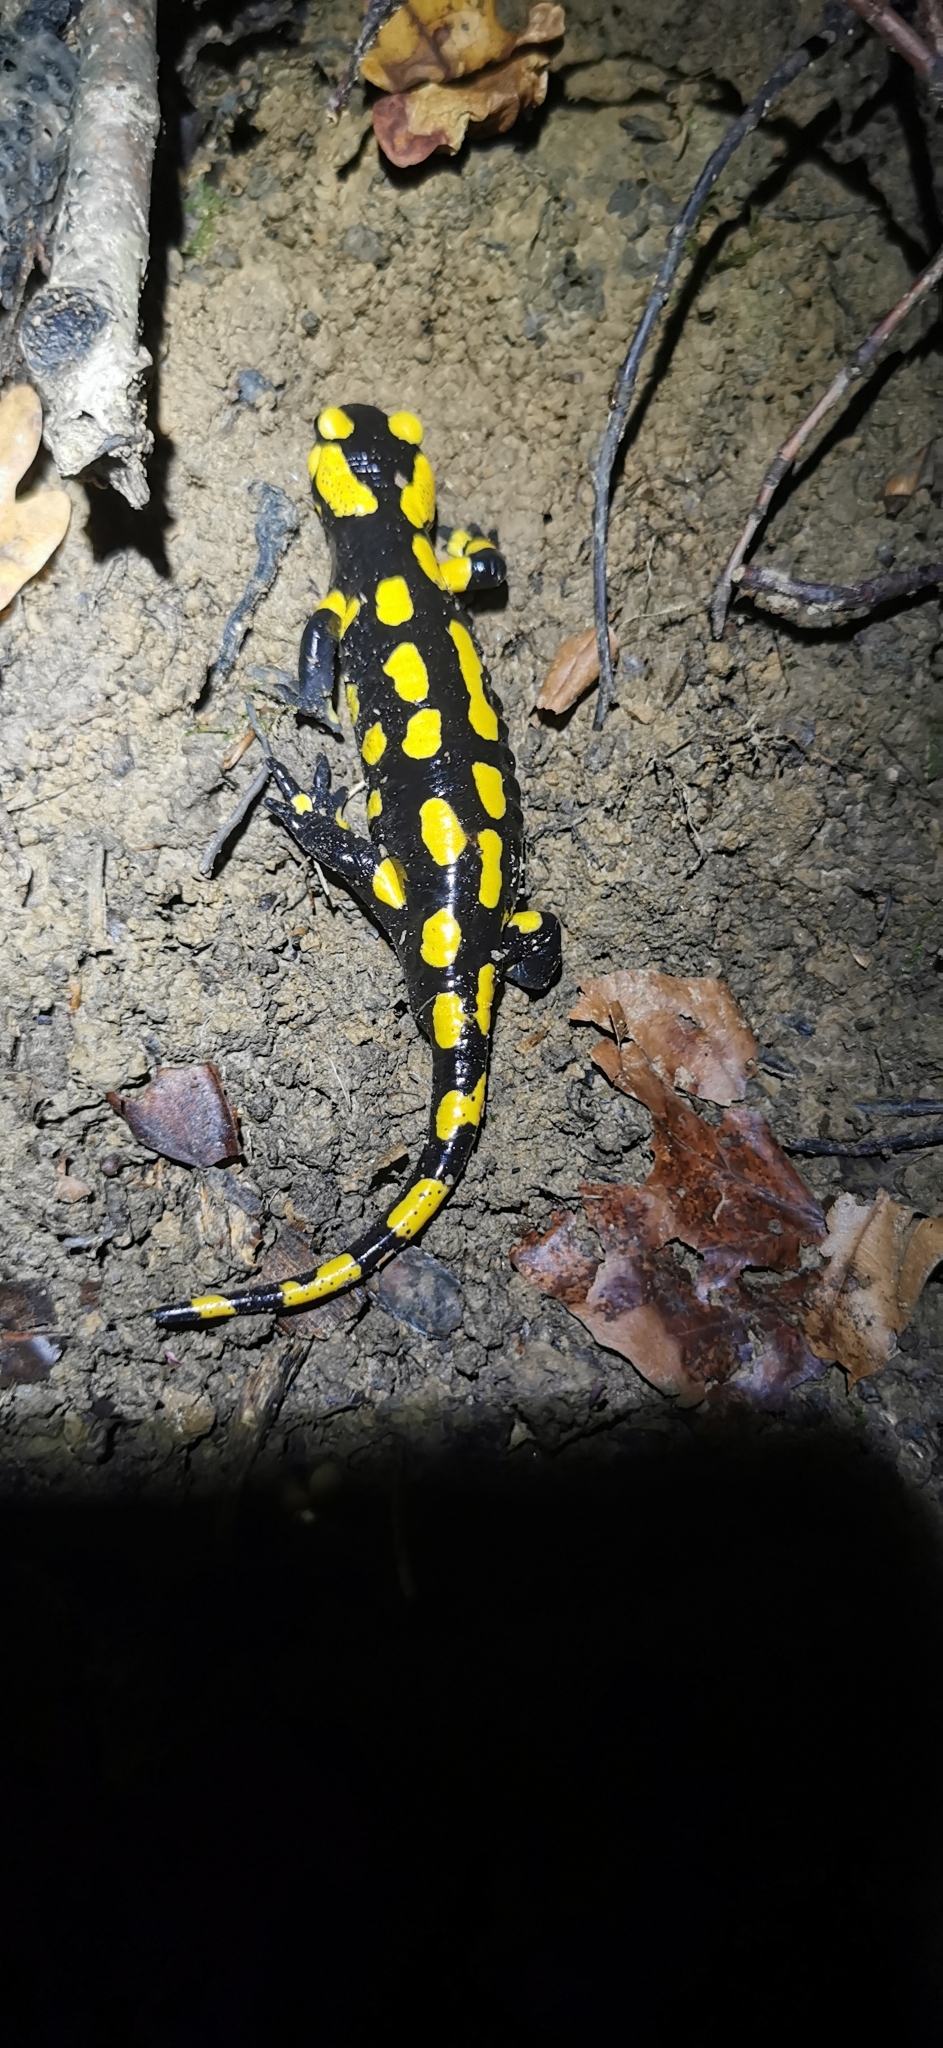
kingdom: Animalia
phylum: Chordata
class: Amphibia
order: Caudata
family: Salamandridae
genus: Salamandra
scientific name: Salamandra salamandra
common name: Fire salamander
